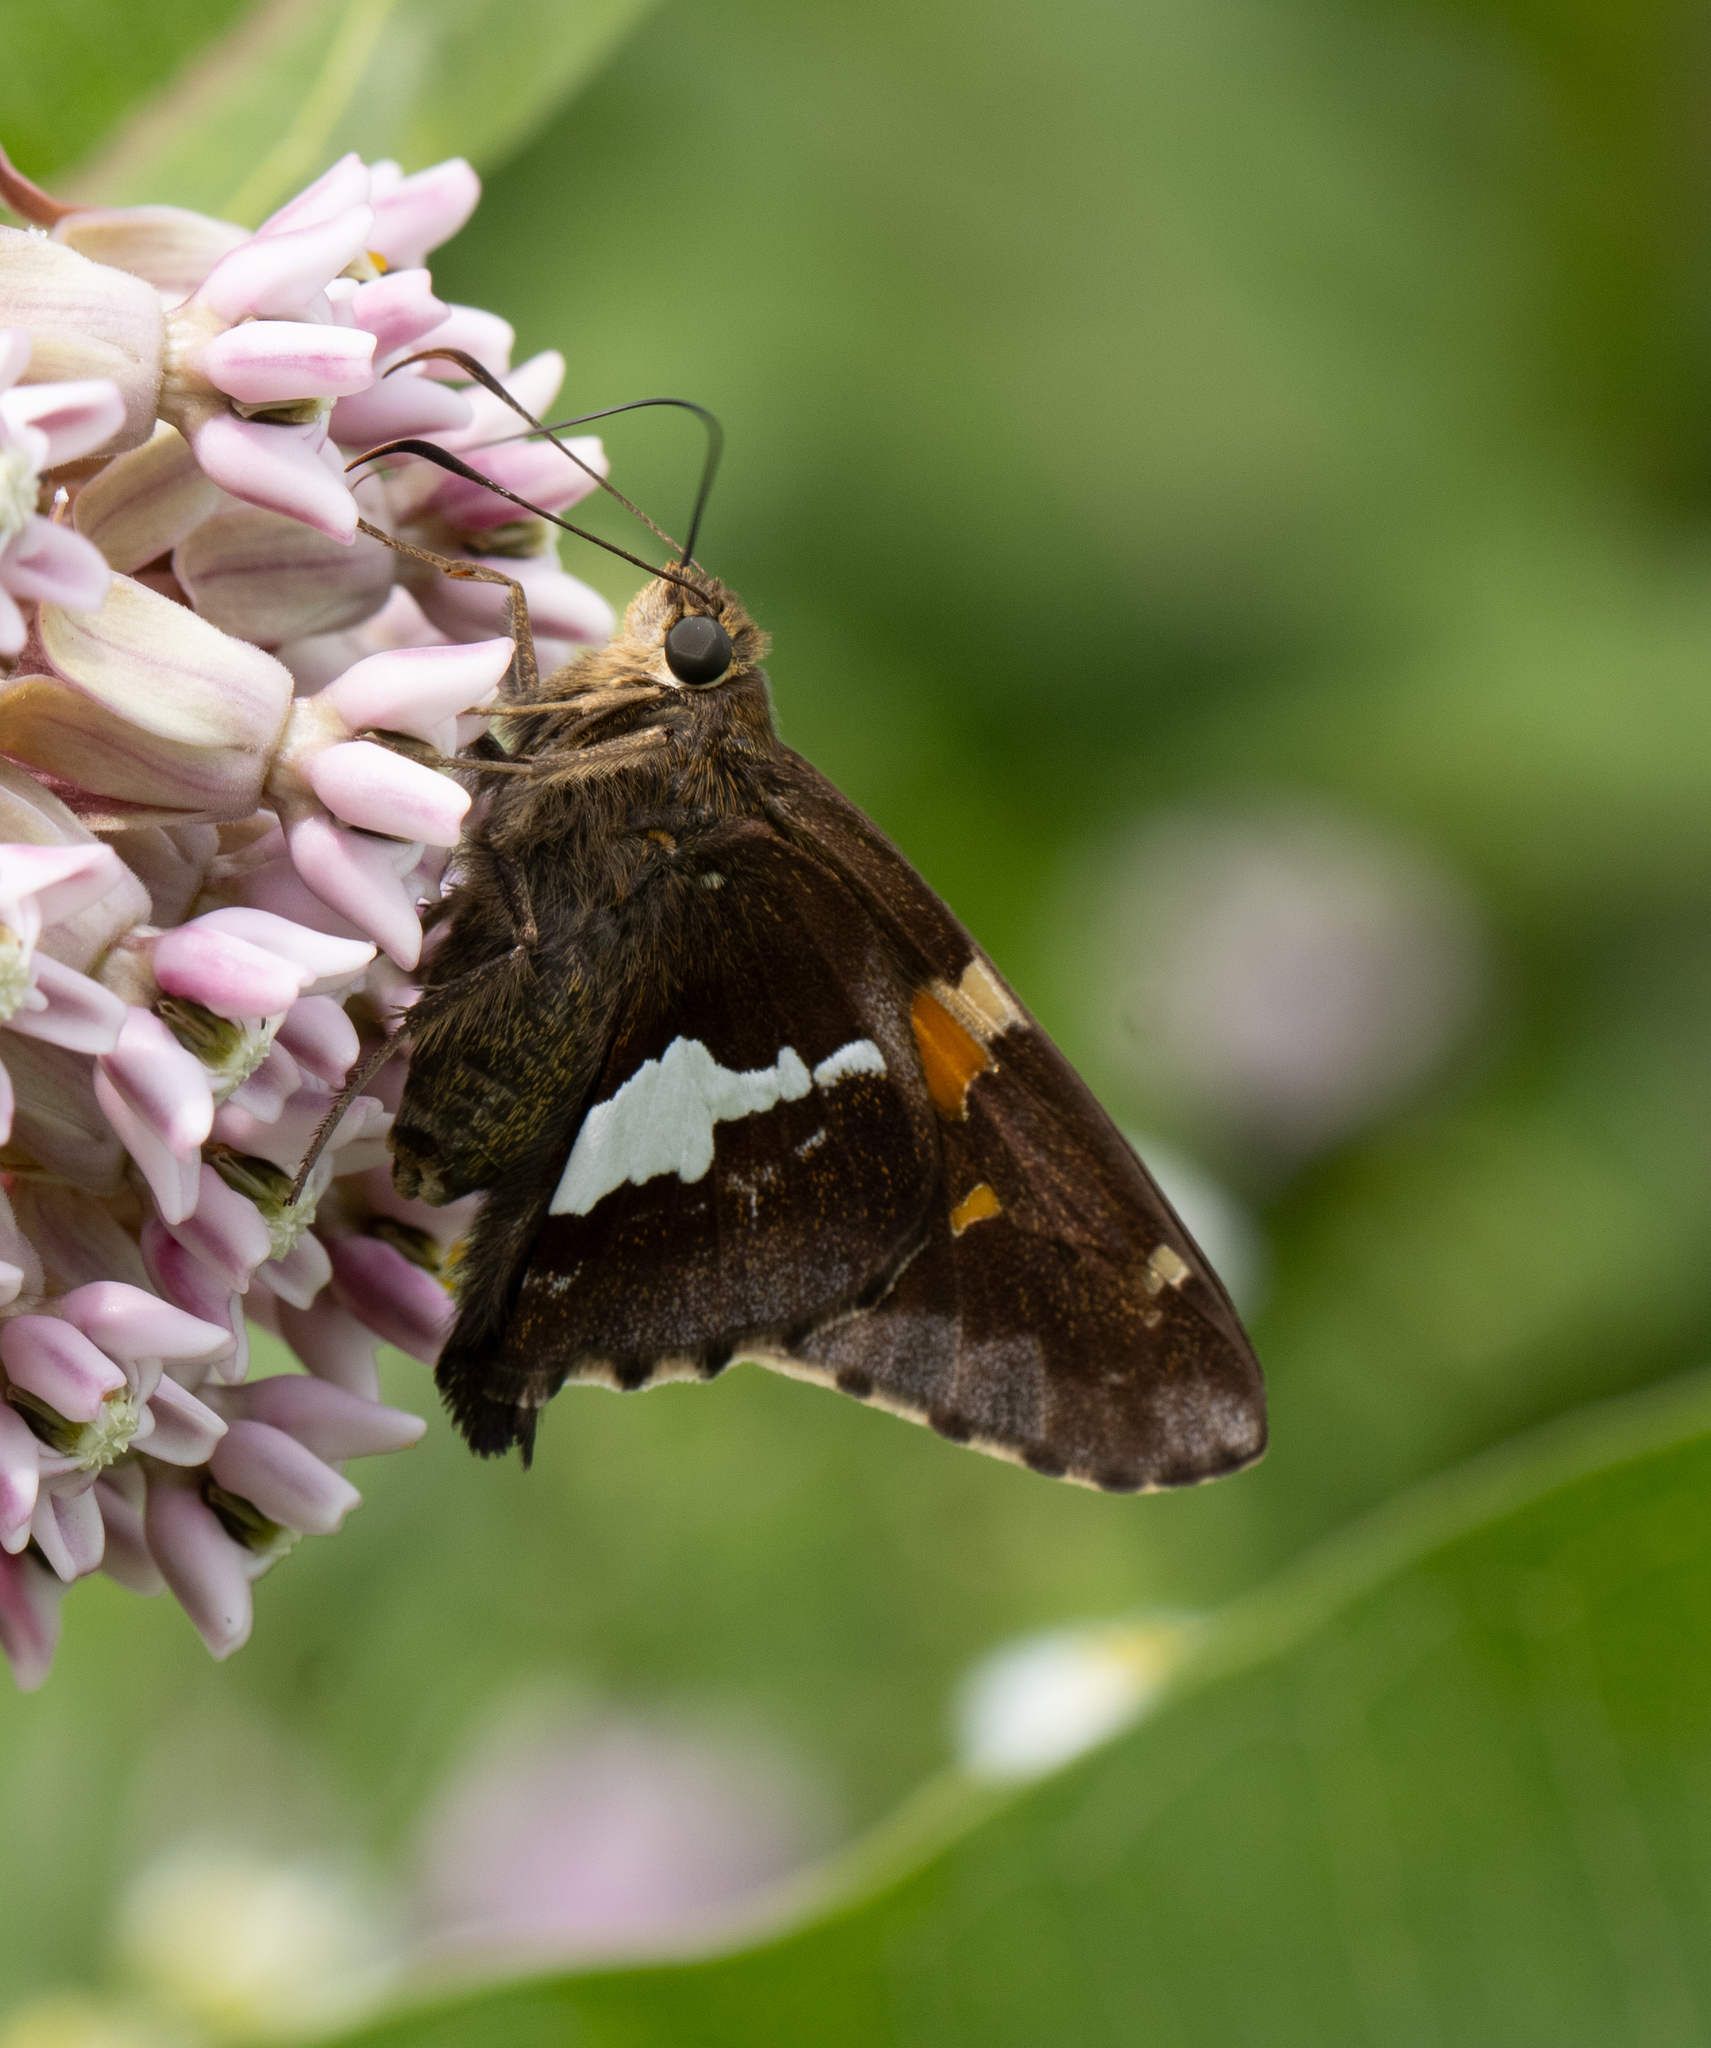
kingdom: Animalia
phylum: Arthropoda
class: Insecta
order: Lepidoptera
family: Hesperiidae
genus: Epargyreus
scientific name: Epargyreus clarus
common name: Silver-spotted skipper
